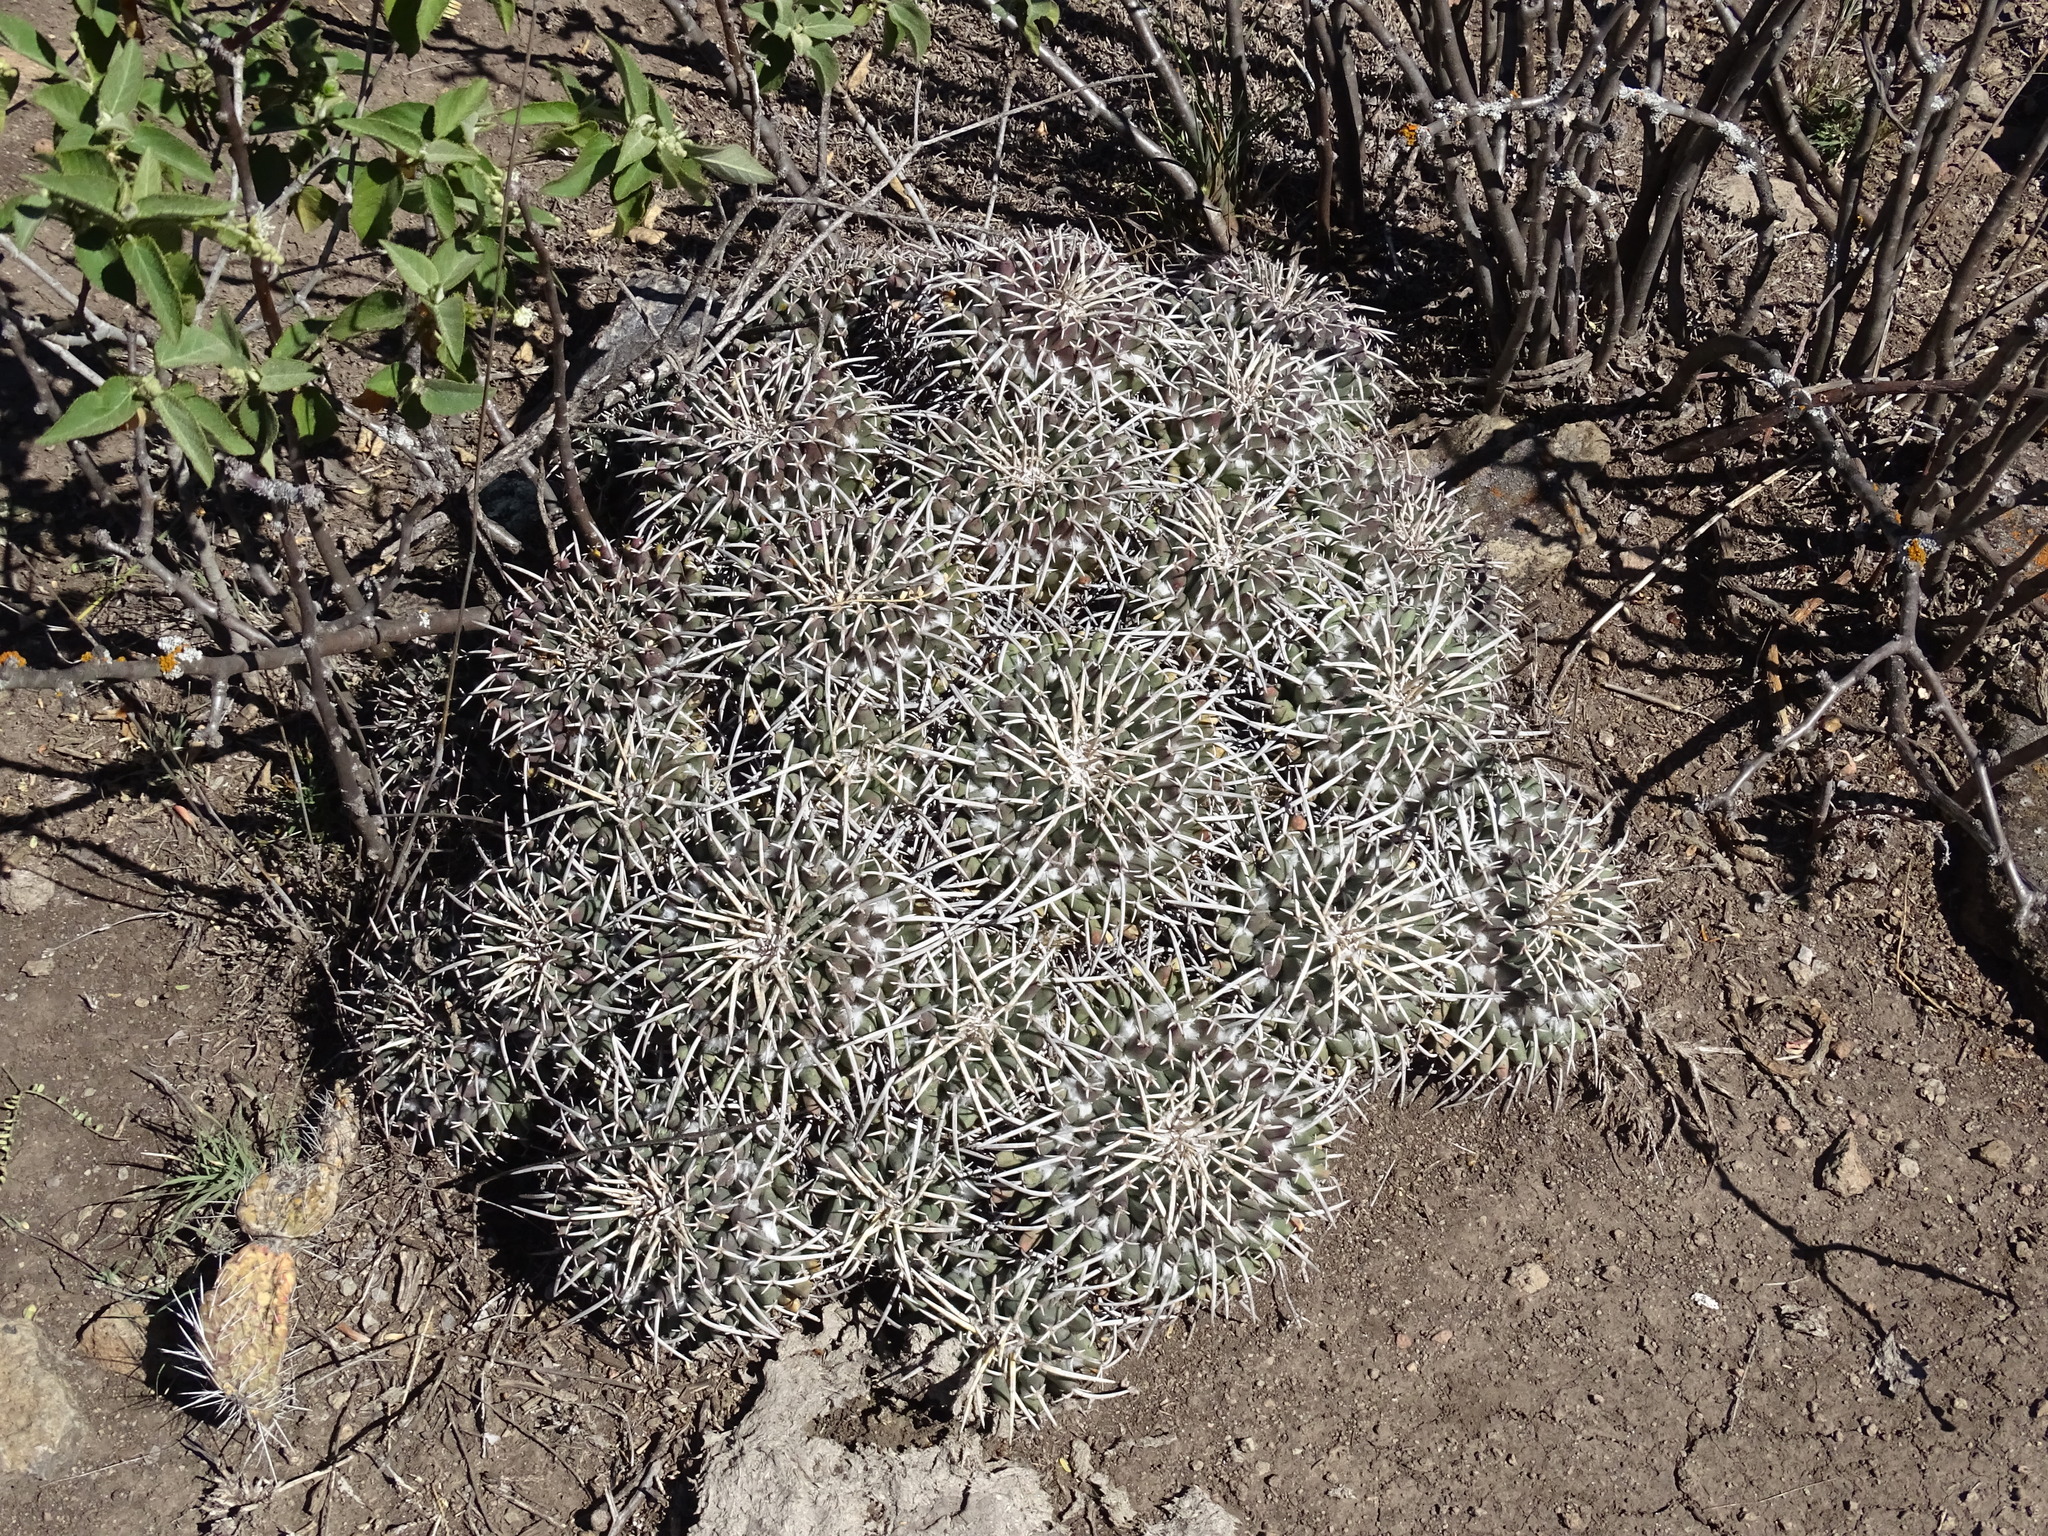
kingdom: Plantae
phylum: Tracheophyta
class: Magnoliopsida
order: Caryophyllales
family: Cactaceae
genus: Mammillaria
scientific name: Mammillaria magnimamma
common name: Mexican pincushion
